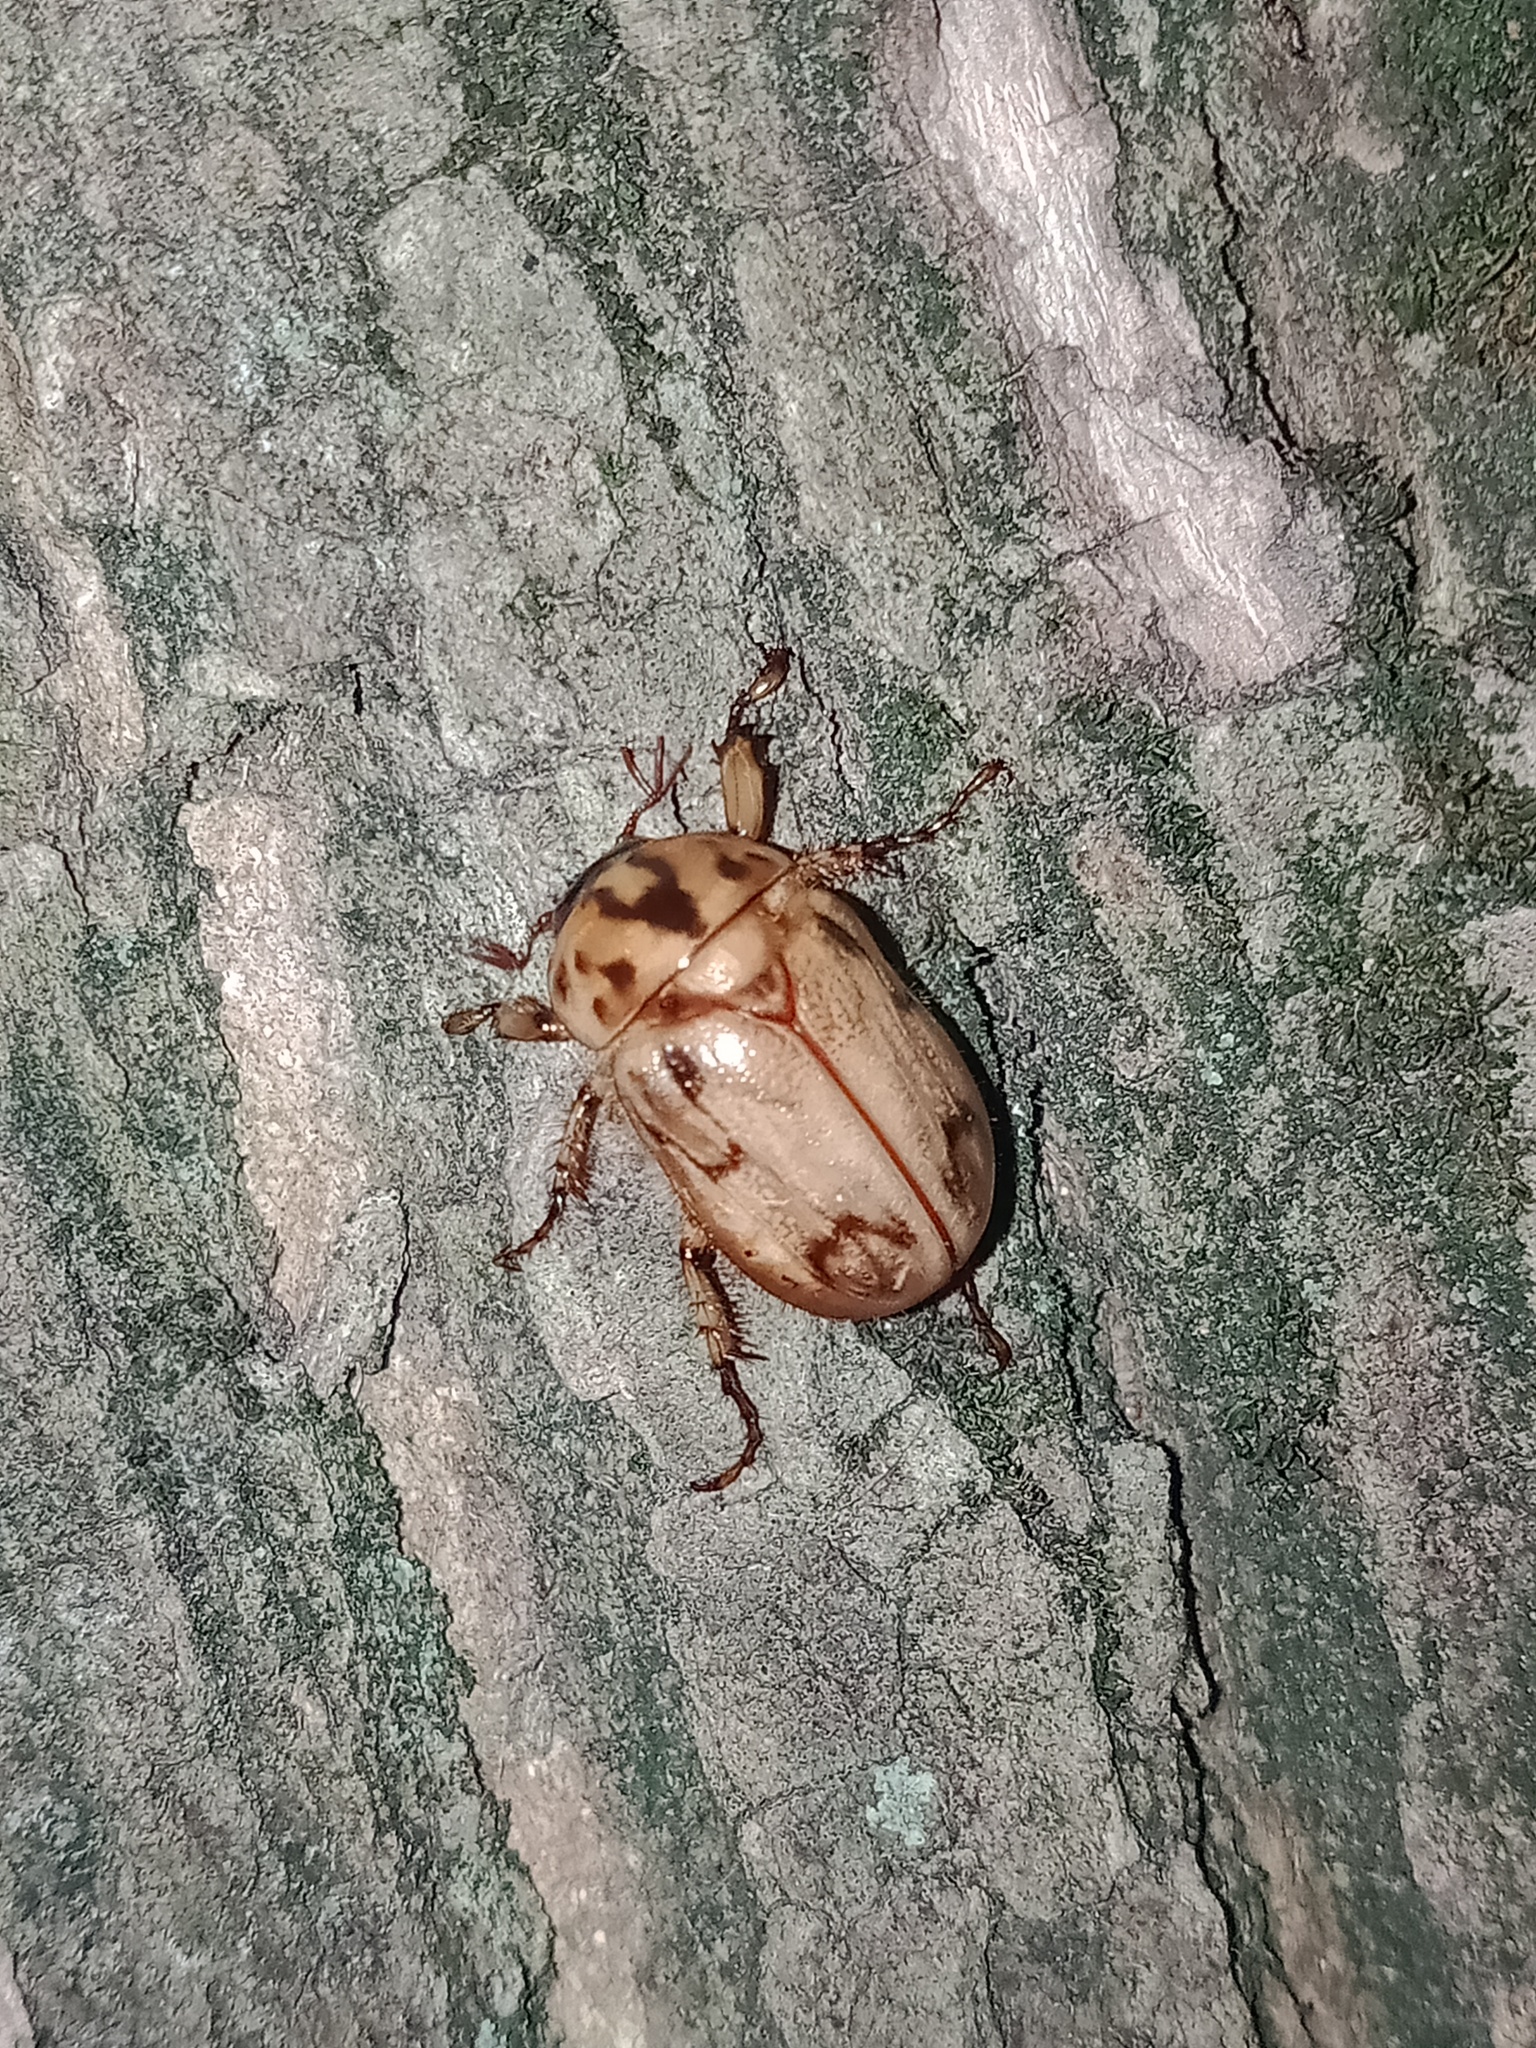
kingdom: Animalia
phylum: Arthropoda
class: Insecta
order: Coleoptera
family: Scarabaeidae
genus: Cyclocephala
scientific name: Cyclocephala signaticollis
